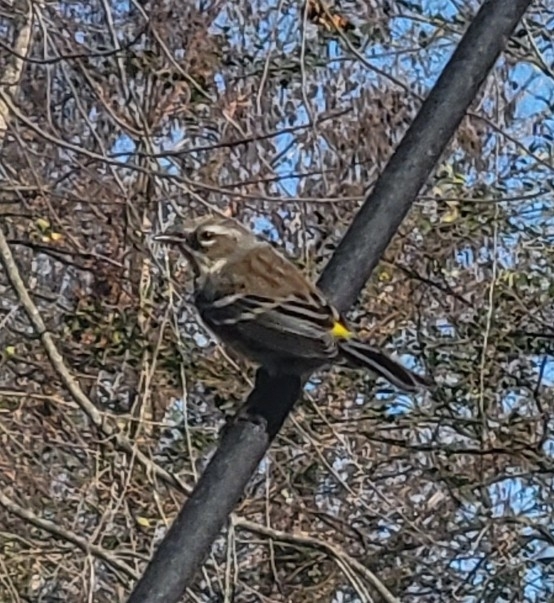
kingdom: Animalia
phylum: Chordata
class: Aves
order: Passeriformes
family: Parulidae
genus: Setophaga
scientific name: Setophaga coronata
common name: Myrtle warbler
